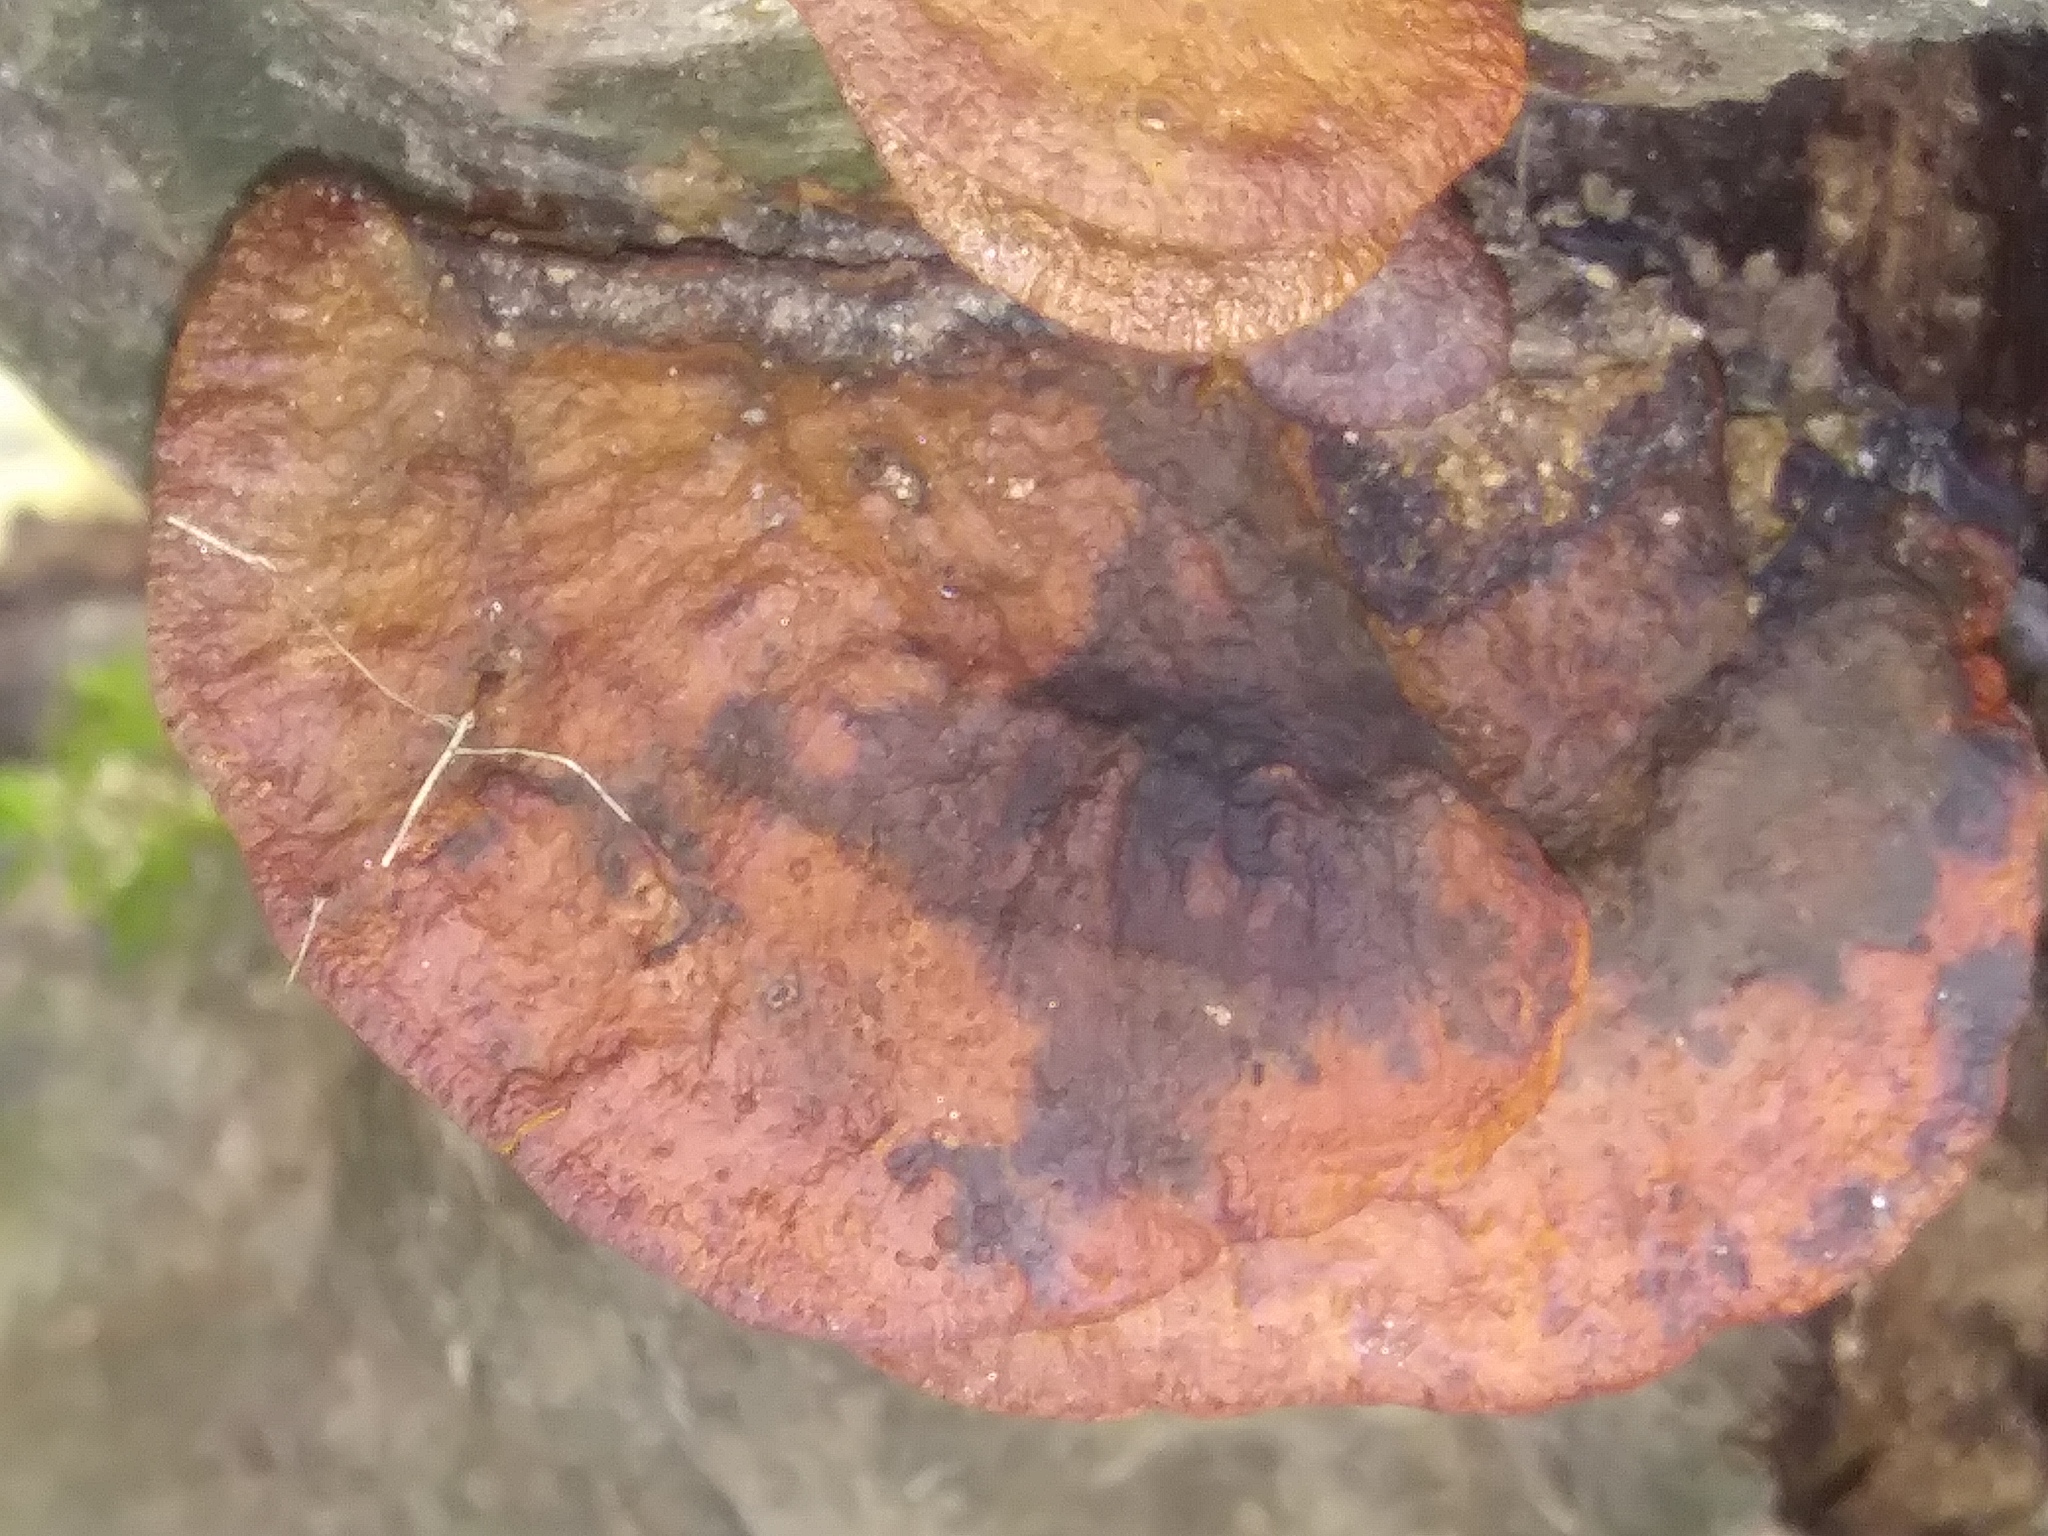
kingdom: Fungi
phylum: Basidiomycota
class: Agaricomycetes
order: Polyporales
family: Polyporaceae
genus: Trametes
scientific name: Trametes cinnabarina
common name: Northern cinnabar polypore
